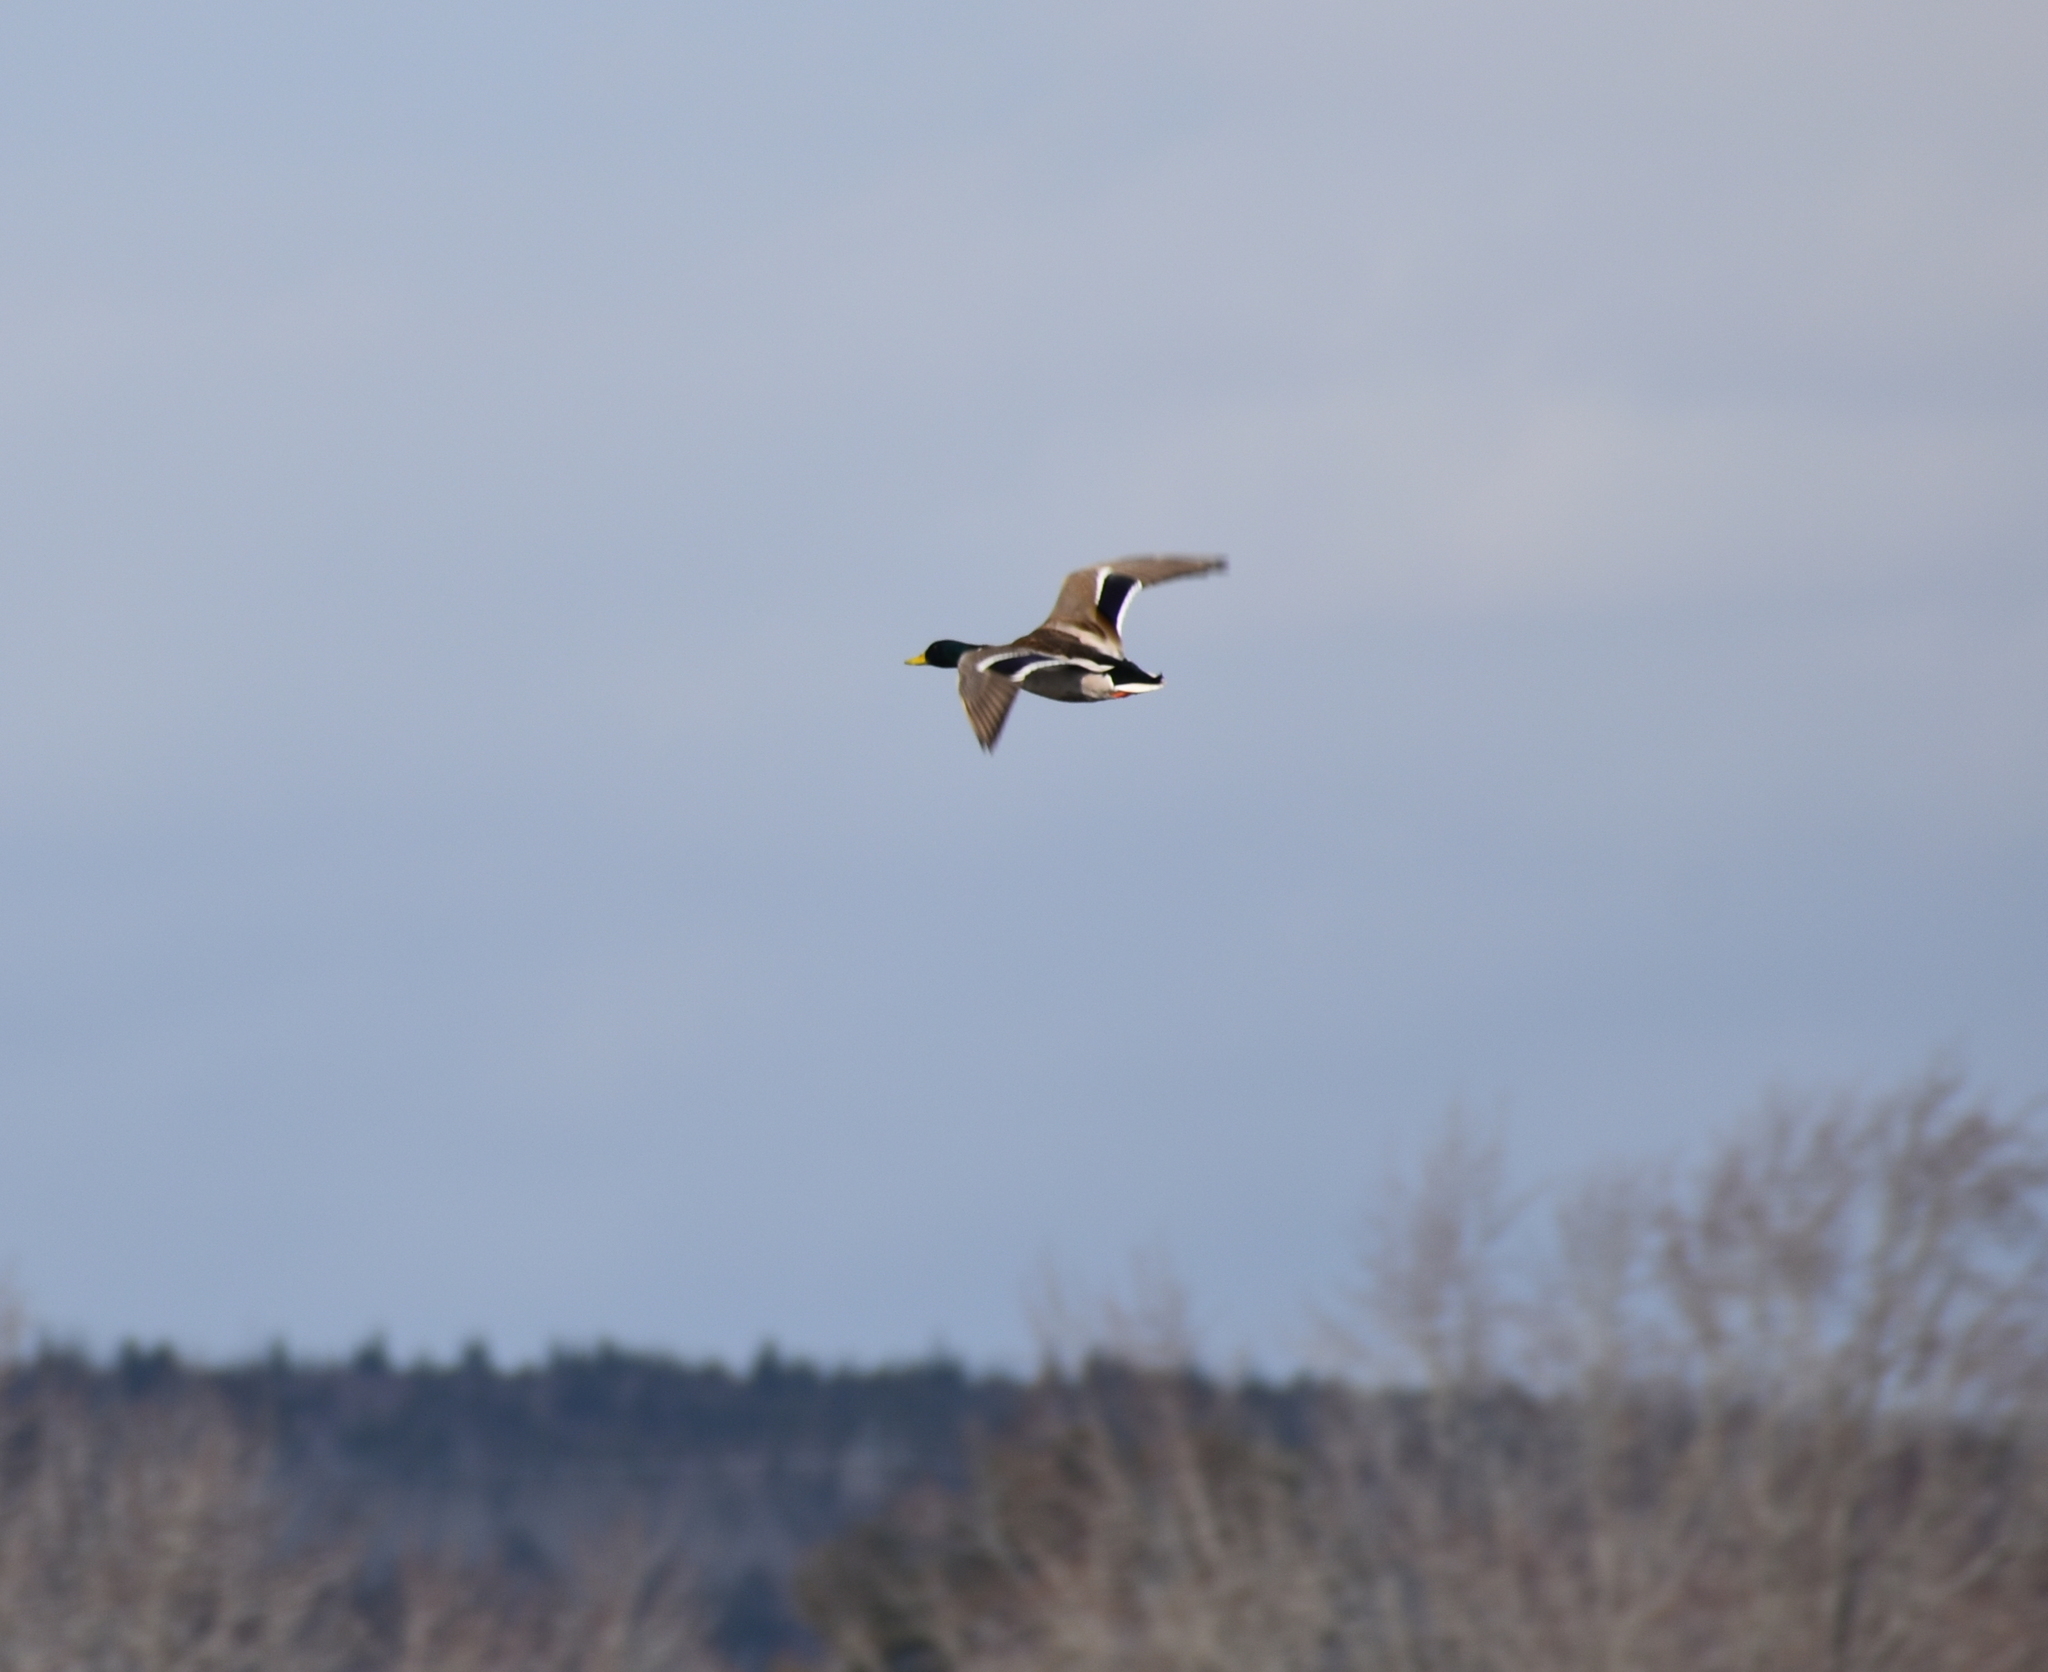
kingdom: Animalia
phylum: Chordata
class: Aves
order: Anseriformes
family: Anatidae
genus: Anas
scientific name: Anas platyrhynchos
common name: Mallard
